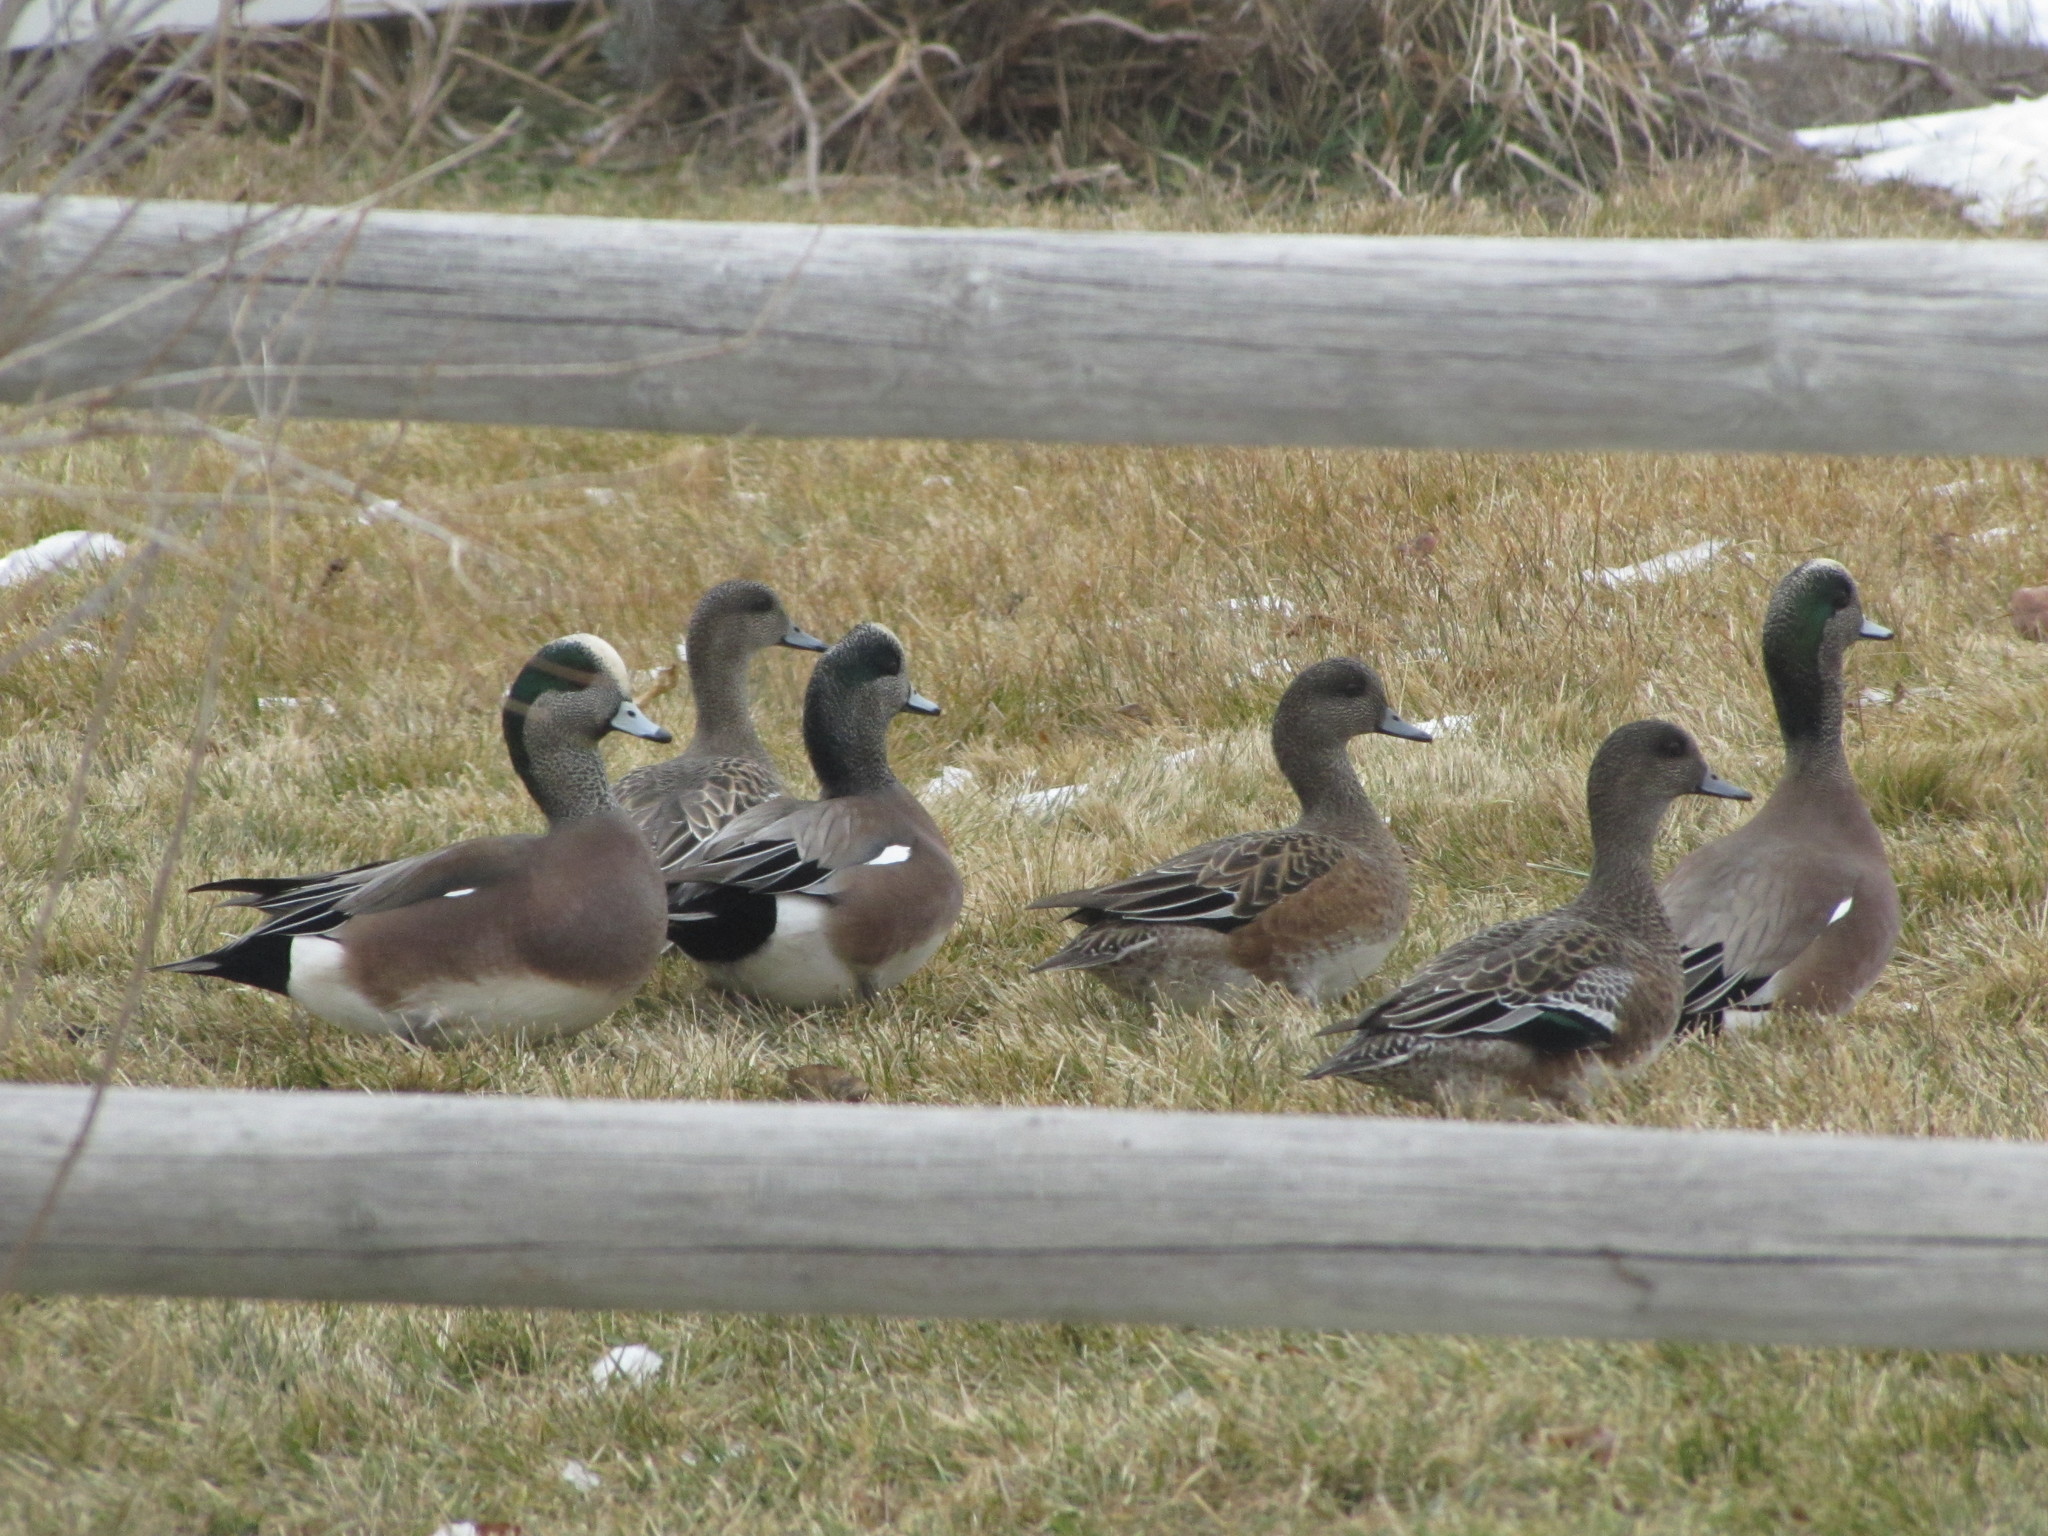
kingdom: Animalia
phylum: Chordata
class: Aves
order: Anseriformes
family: Anatidae
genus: Mareca
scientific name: Mareca americana
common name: American wigeon
